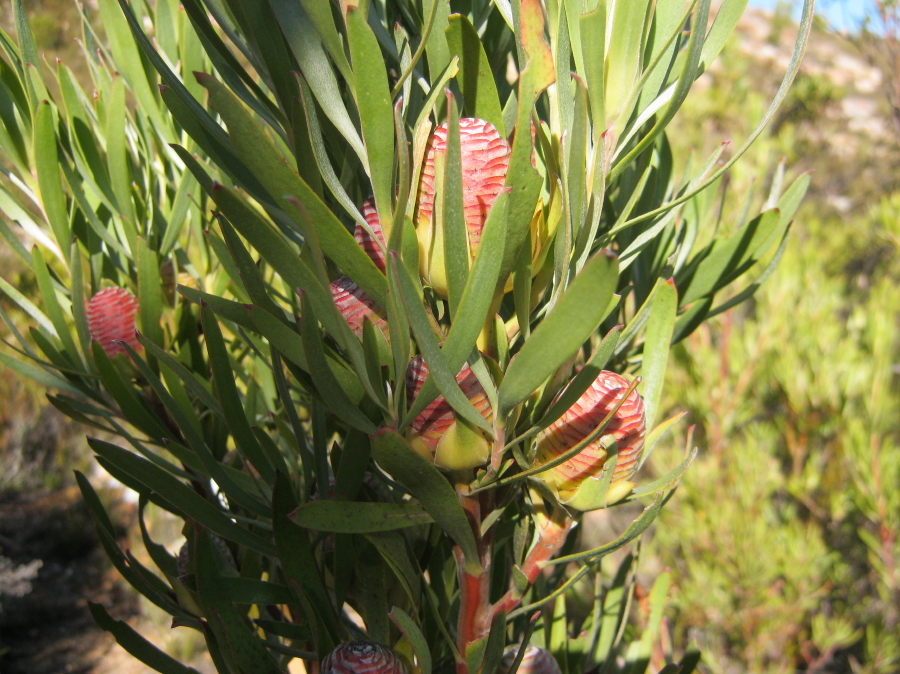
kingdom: Plantae
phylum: Tracheophyta
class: Magnoliopsida
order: Proteales
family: Proteaceae
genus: Leucadendron
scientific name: Leucadendron eucalyptifolium
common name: Gum-leaved conebush
